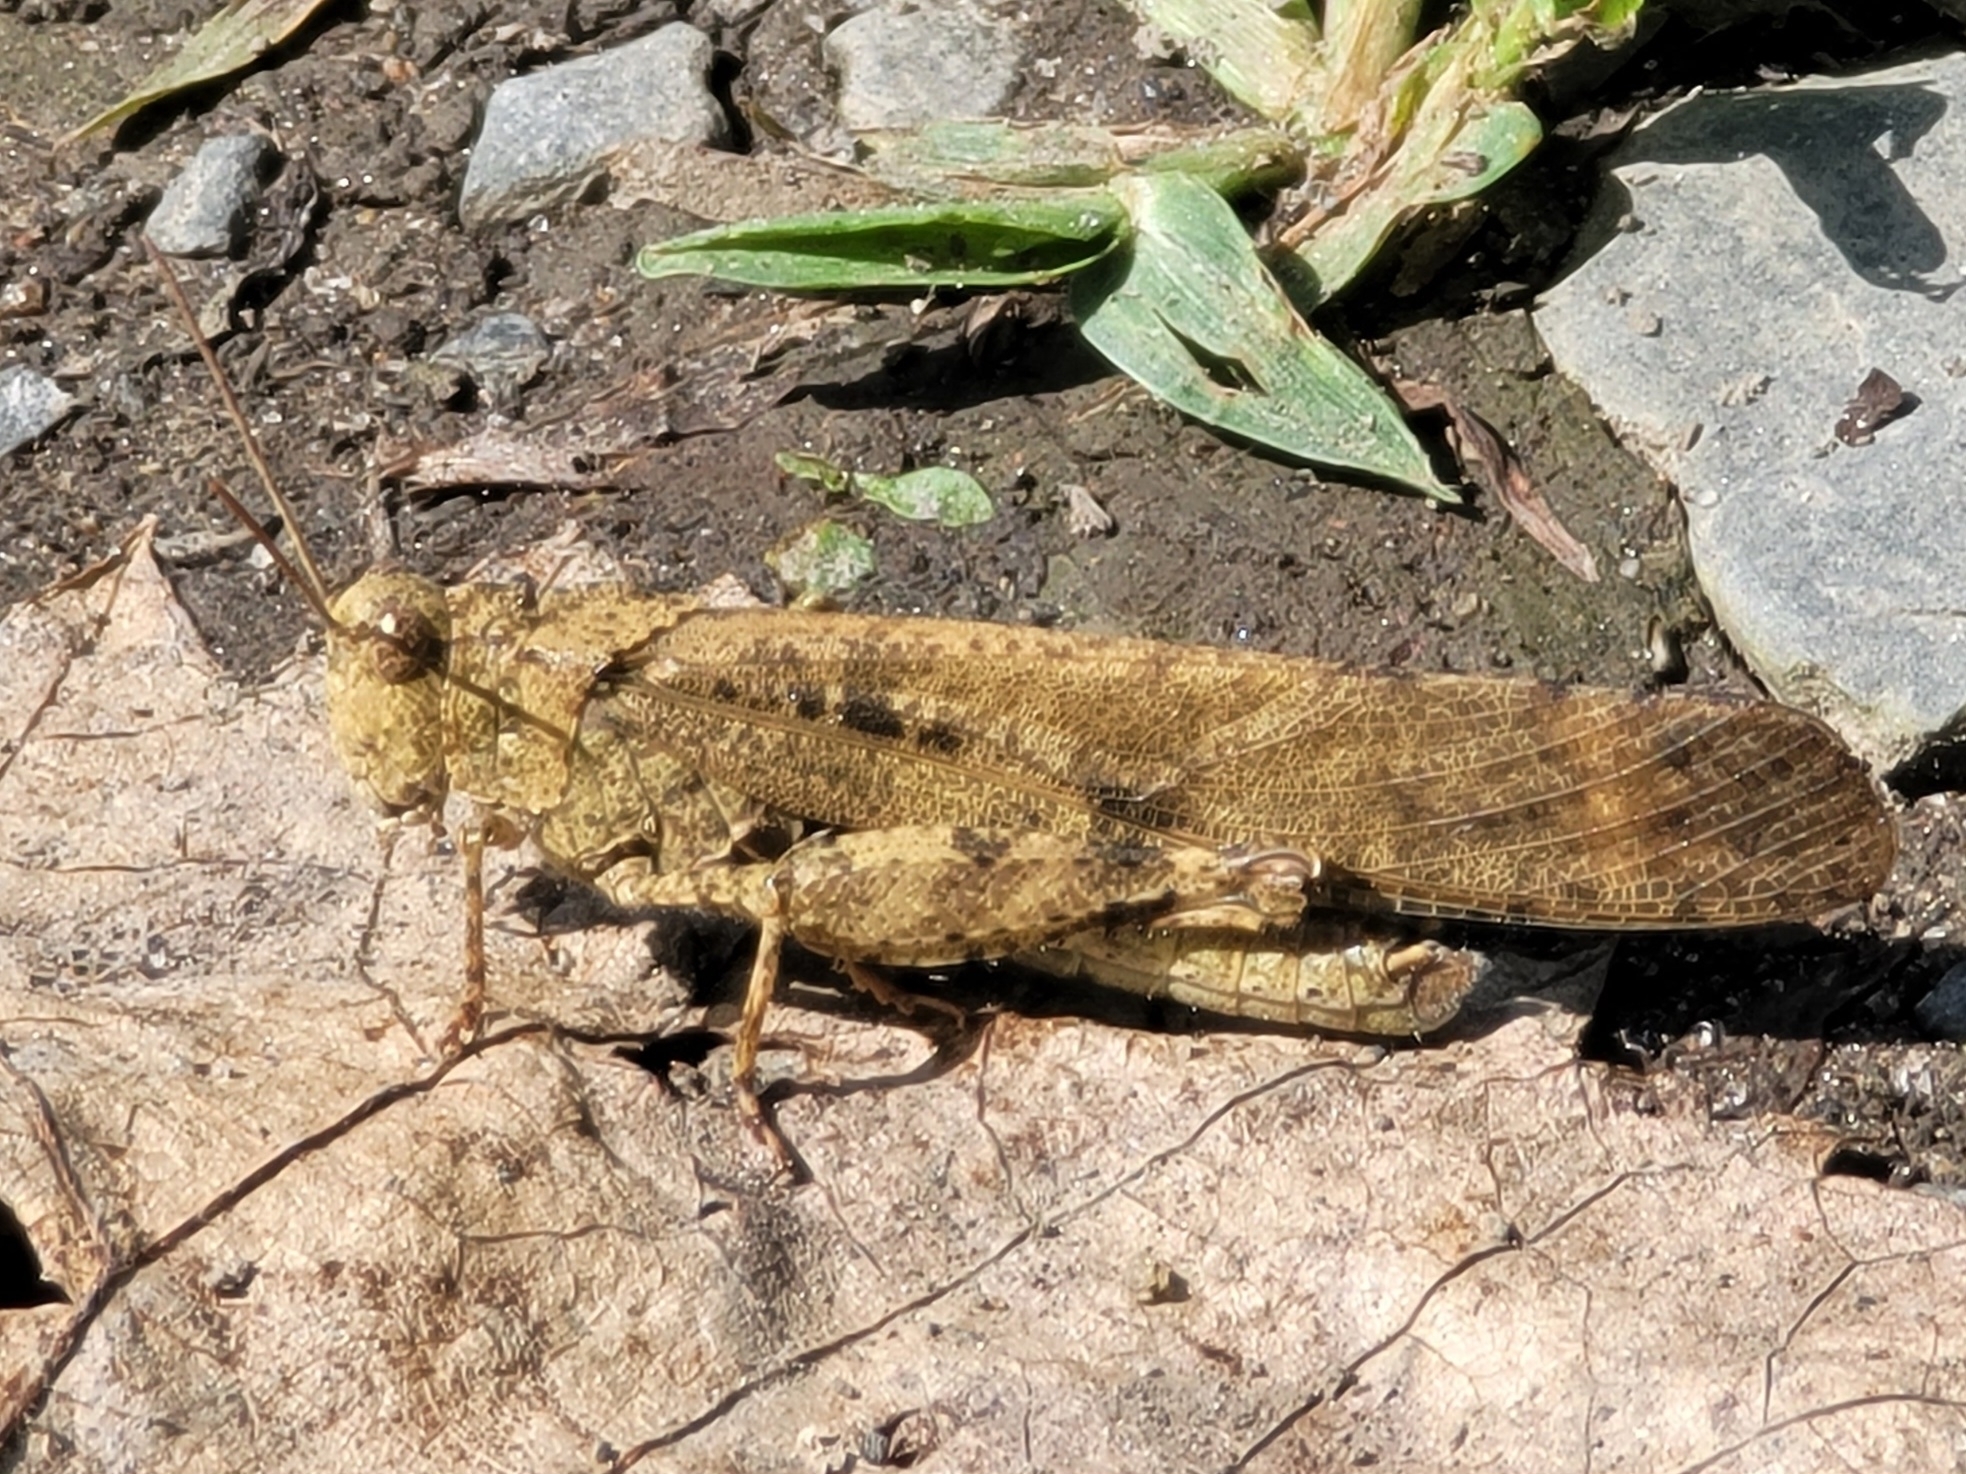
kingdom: Animalia
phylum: Arthropoda
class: Insecta
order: Orthoptera
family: Acrididae
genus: Dissosteira
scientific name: Dissosteira carolina
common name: Carolina grasshopper
